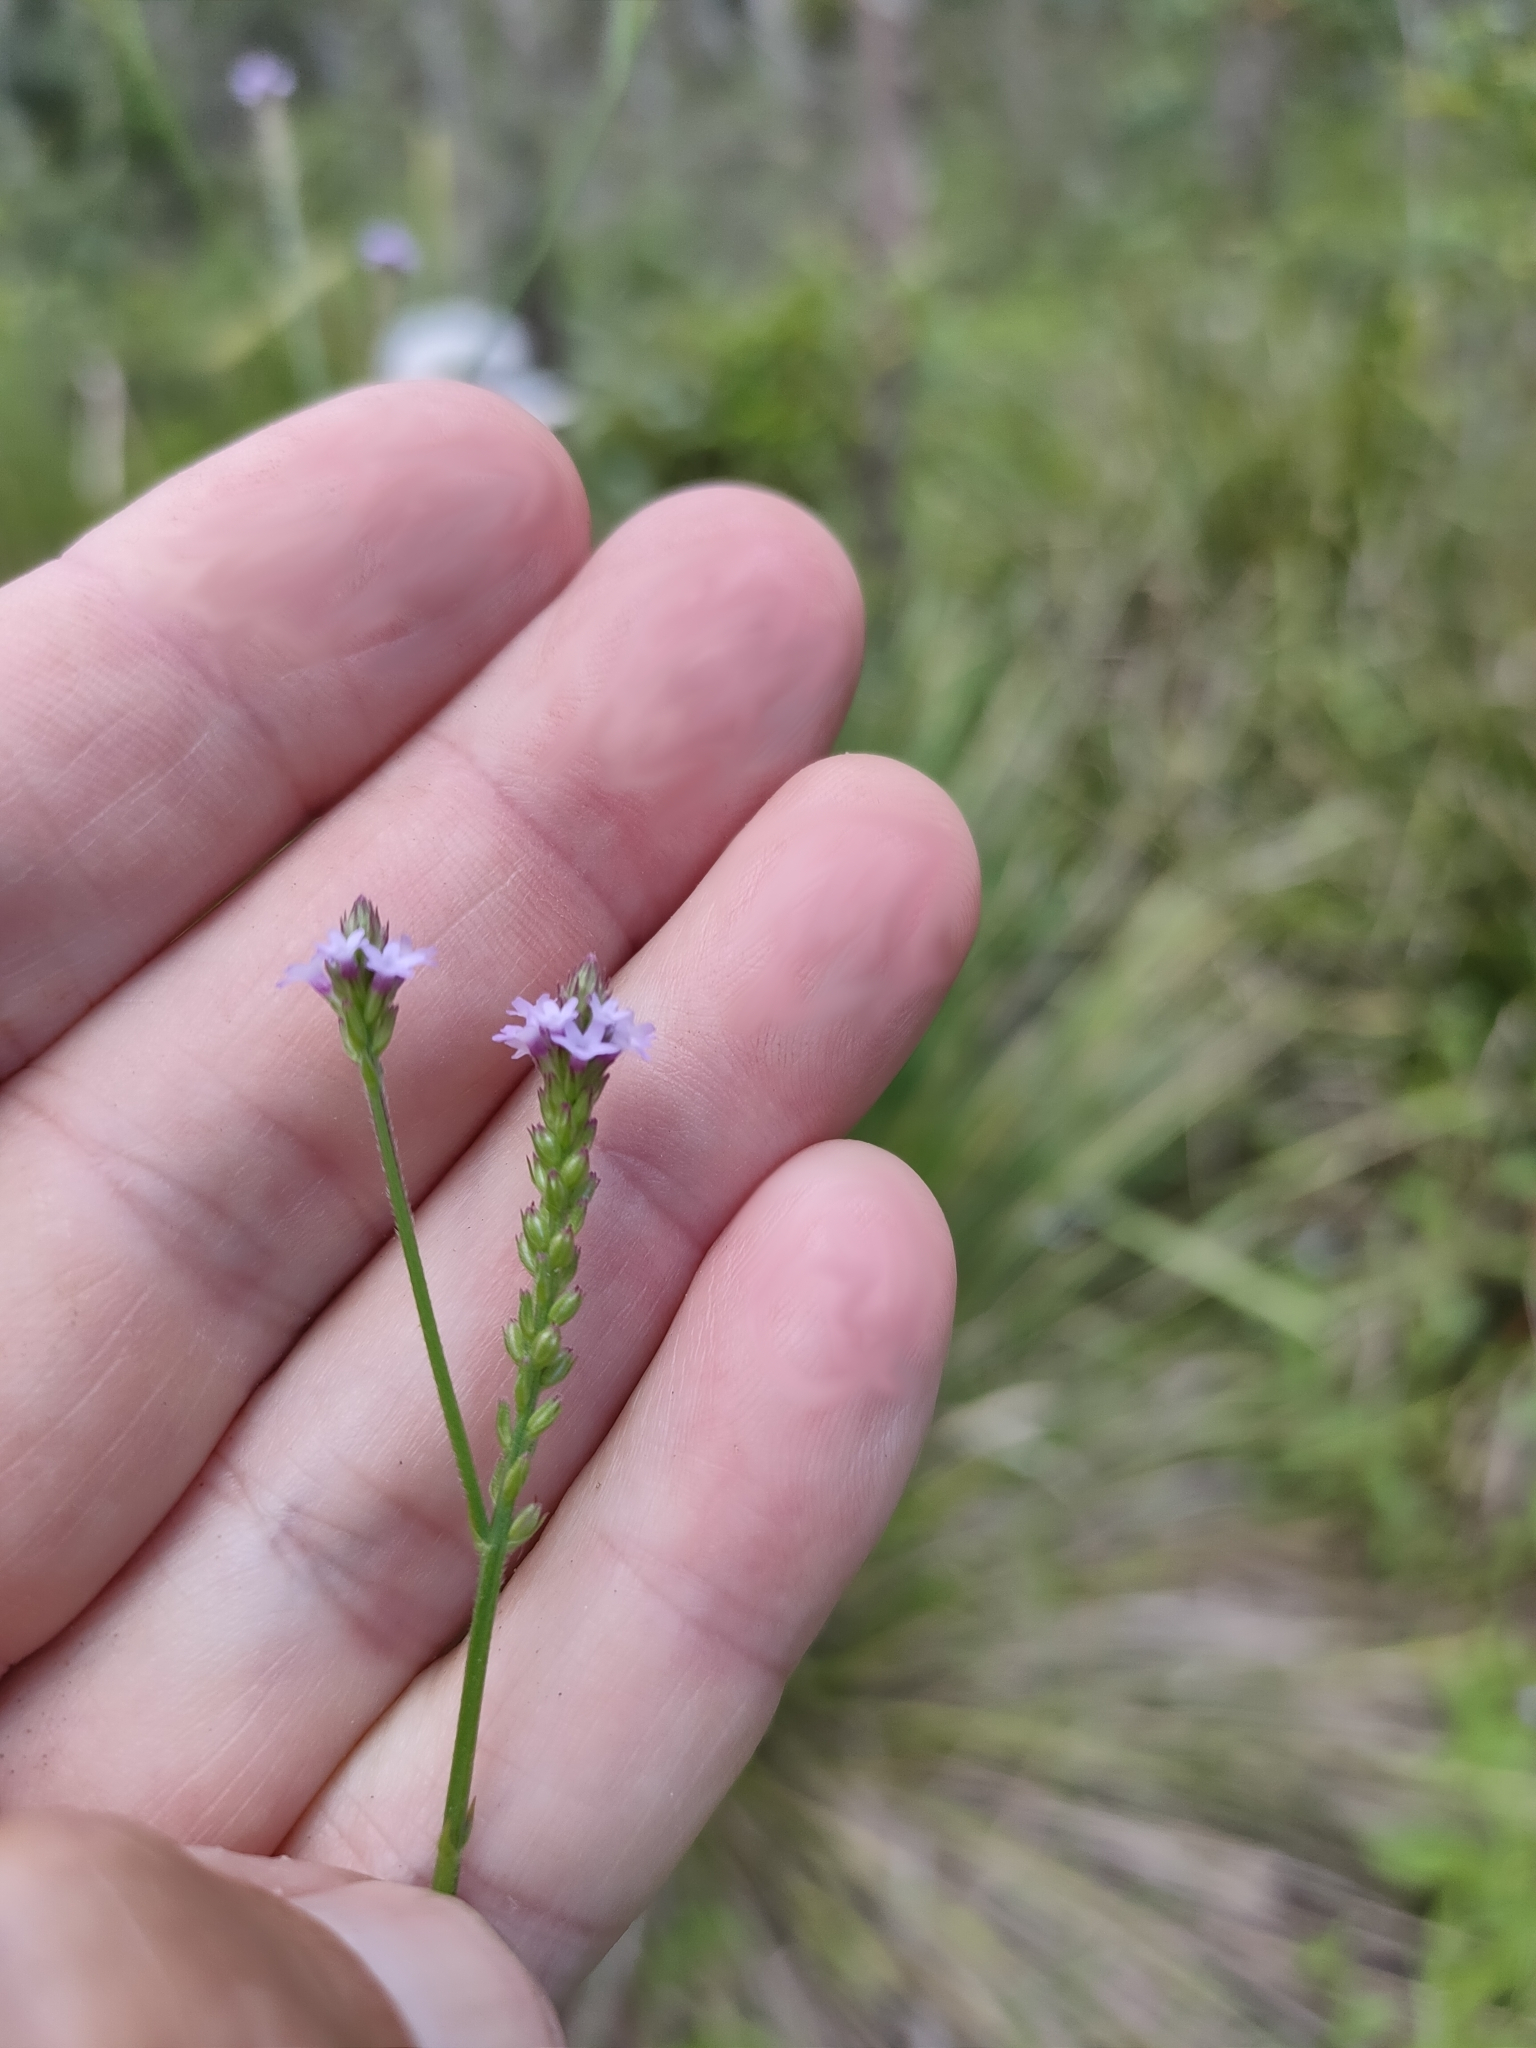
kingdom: Plantae
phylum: Tracheophyta
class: Magnoliopsida
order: Lamiales
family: Verbenaceae
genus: Verbena
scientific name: Verbena litoralis
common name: Seashore vervain
